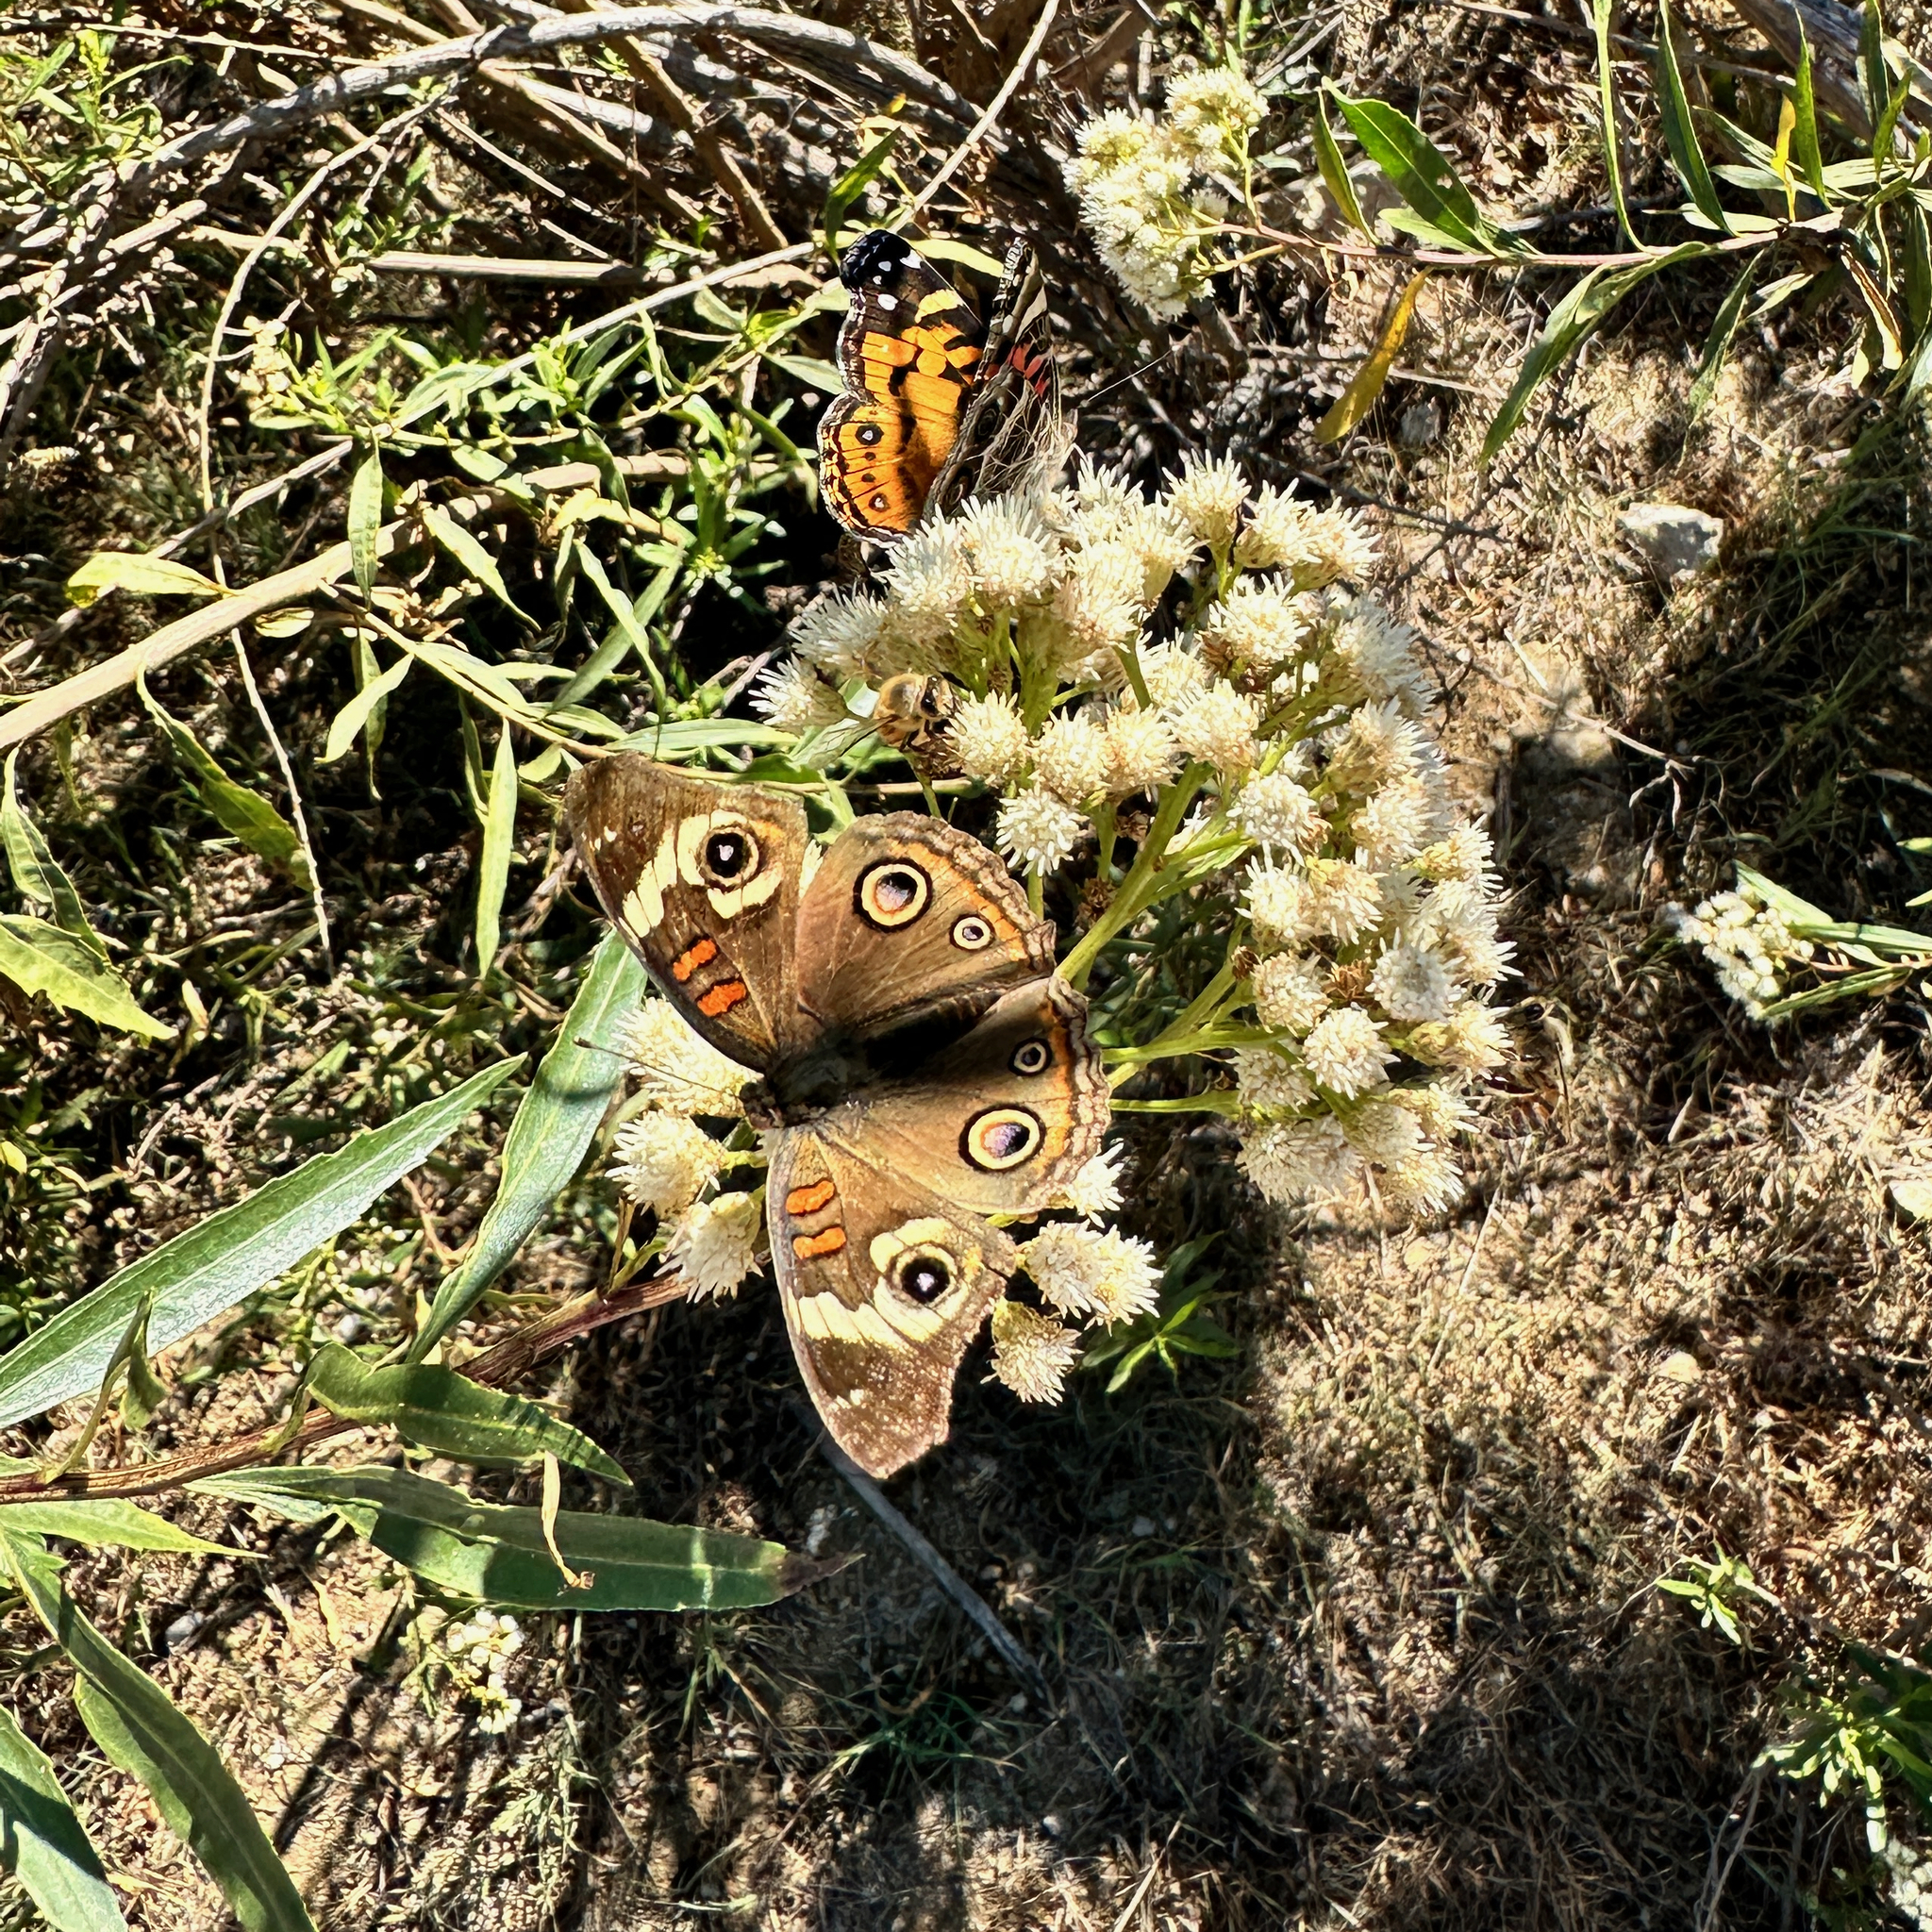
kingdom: Animalia
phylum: Arthropoda
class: Insecta
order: Lepidoptera
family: Nymphalidae
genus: Junonia
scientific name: Junonia grisea
